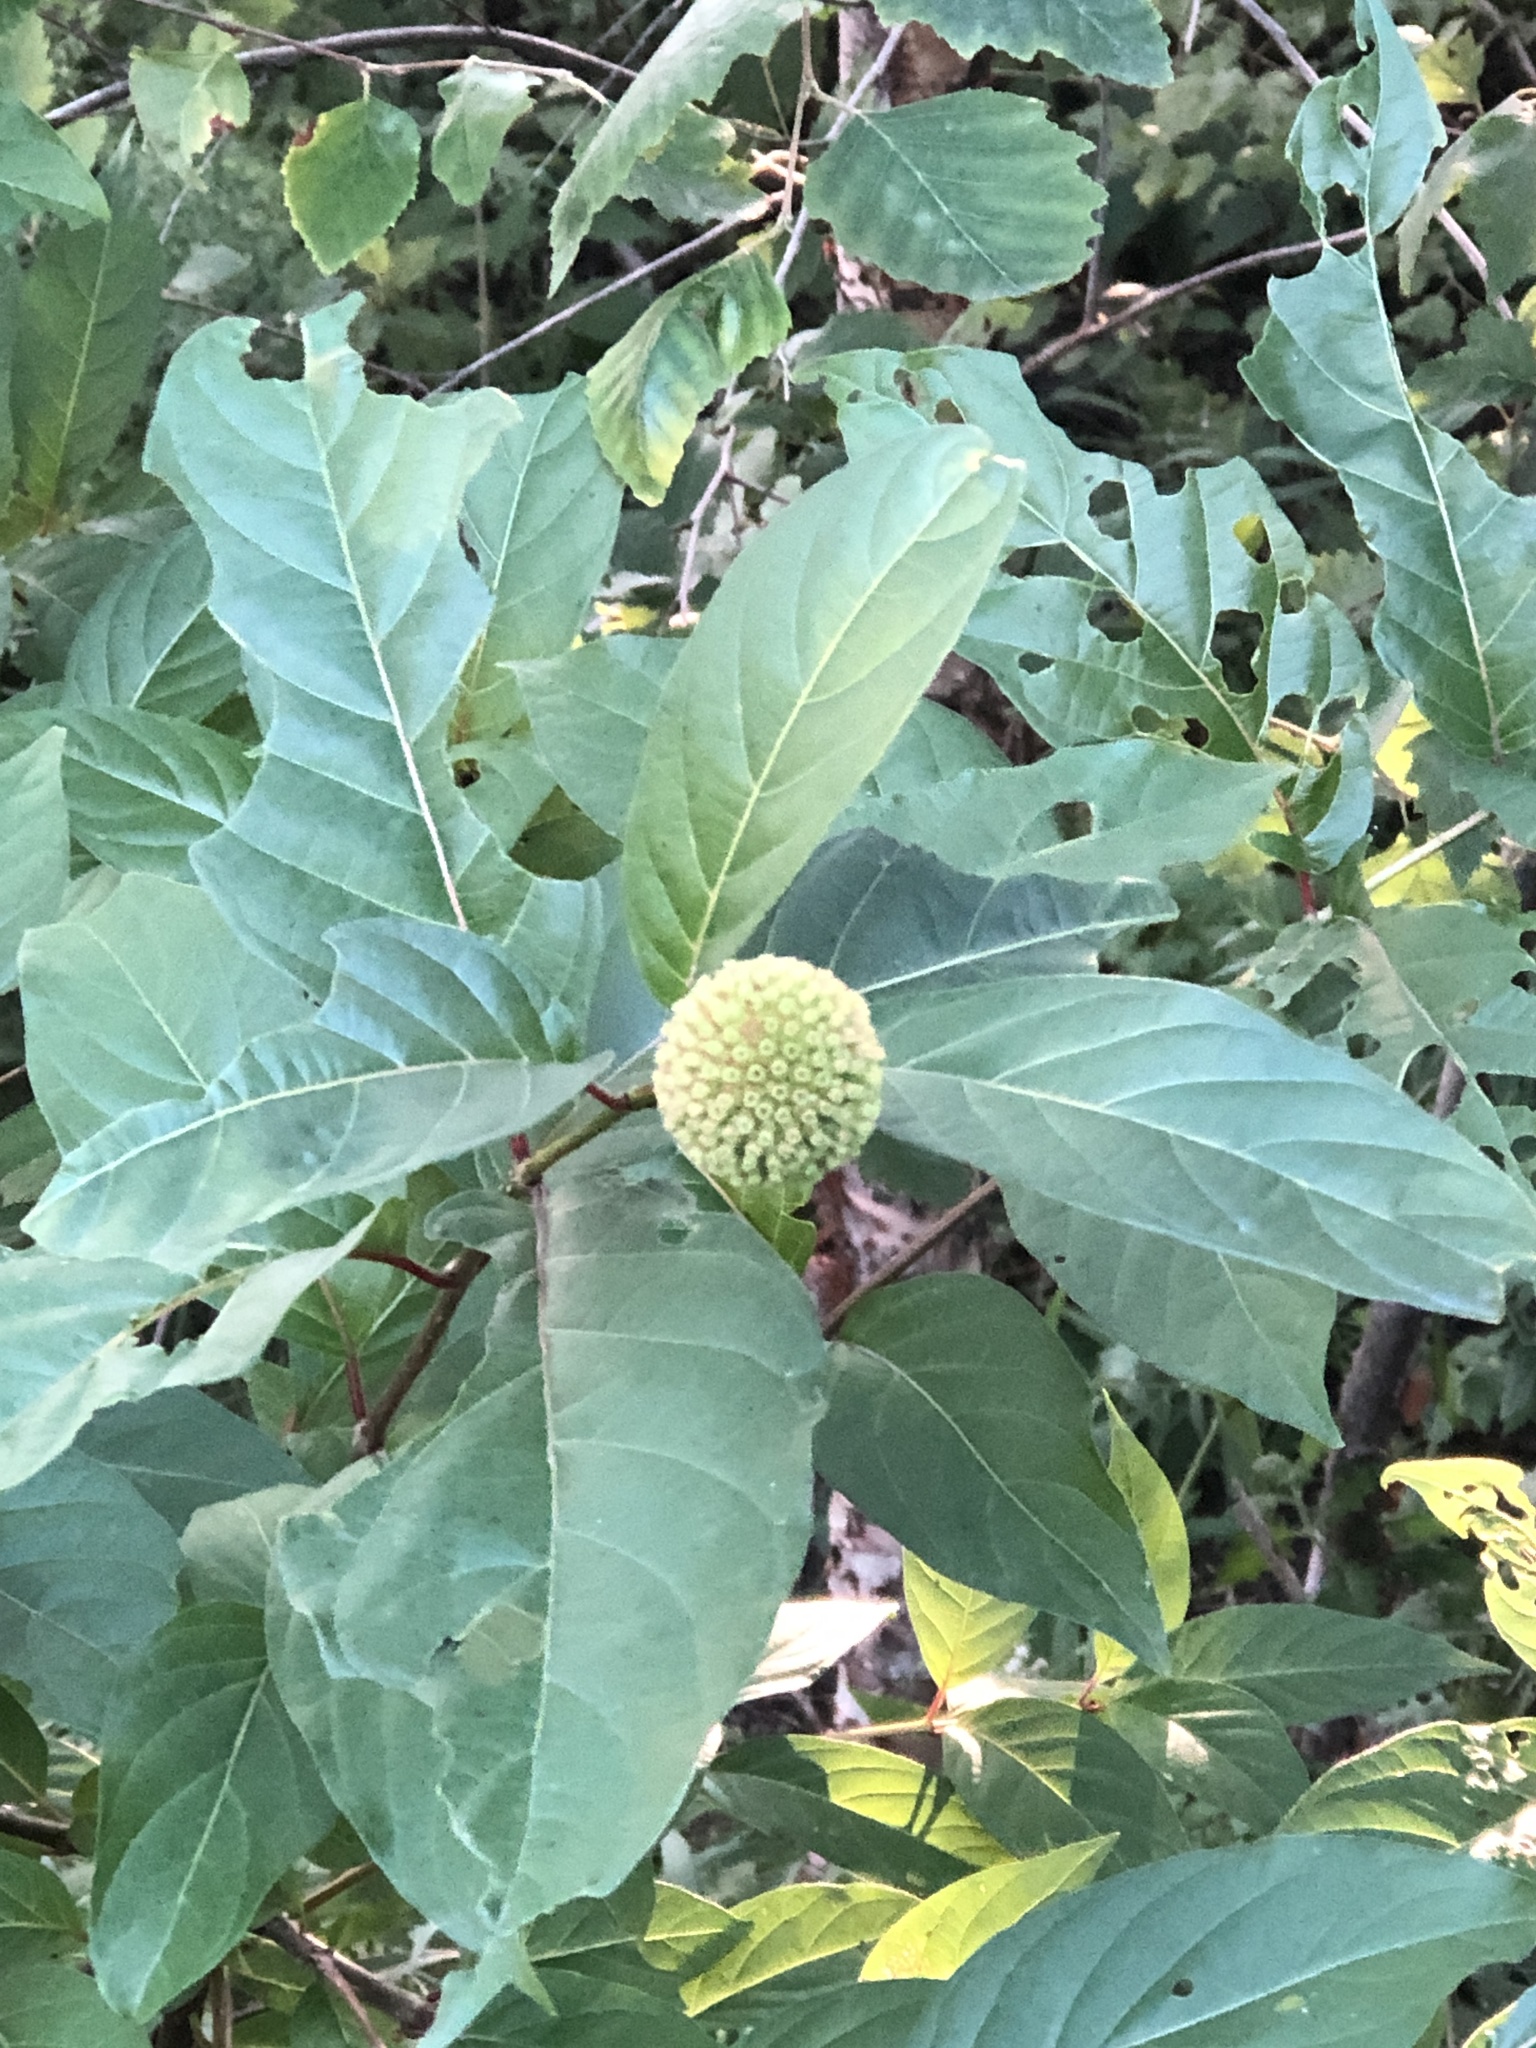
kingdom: Plantae
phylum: Tracheophyta
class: Magnoliopsida
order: Gentianales
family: Rubiaceae
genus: Cephalanthus
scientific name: Cephalanthus occidentalis
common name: Button-willow
